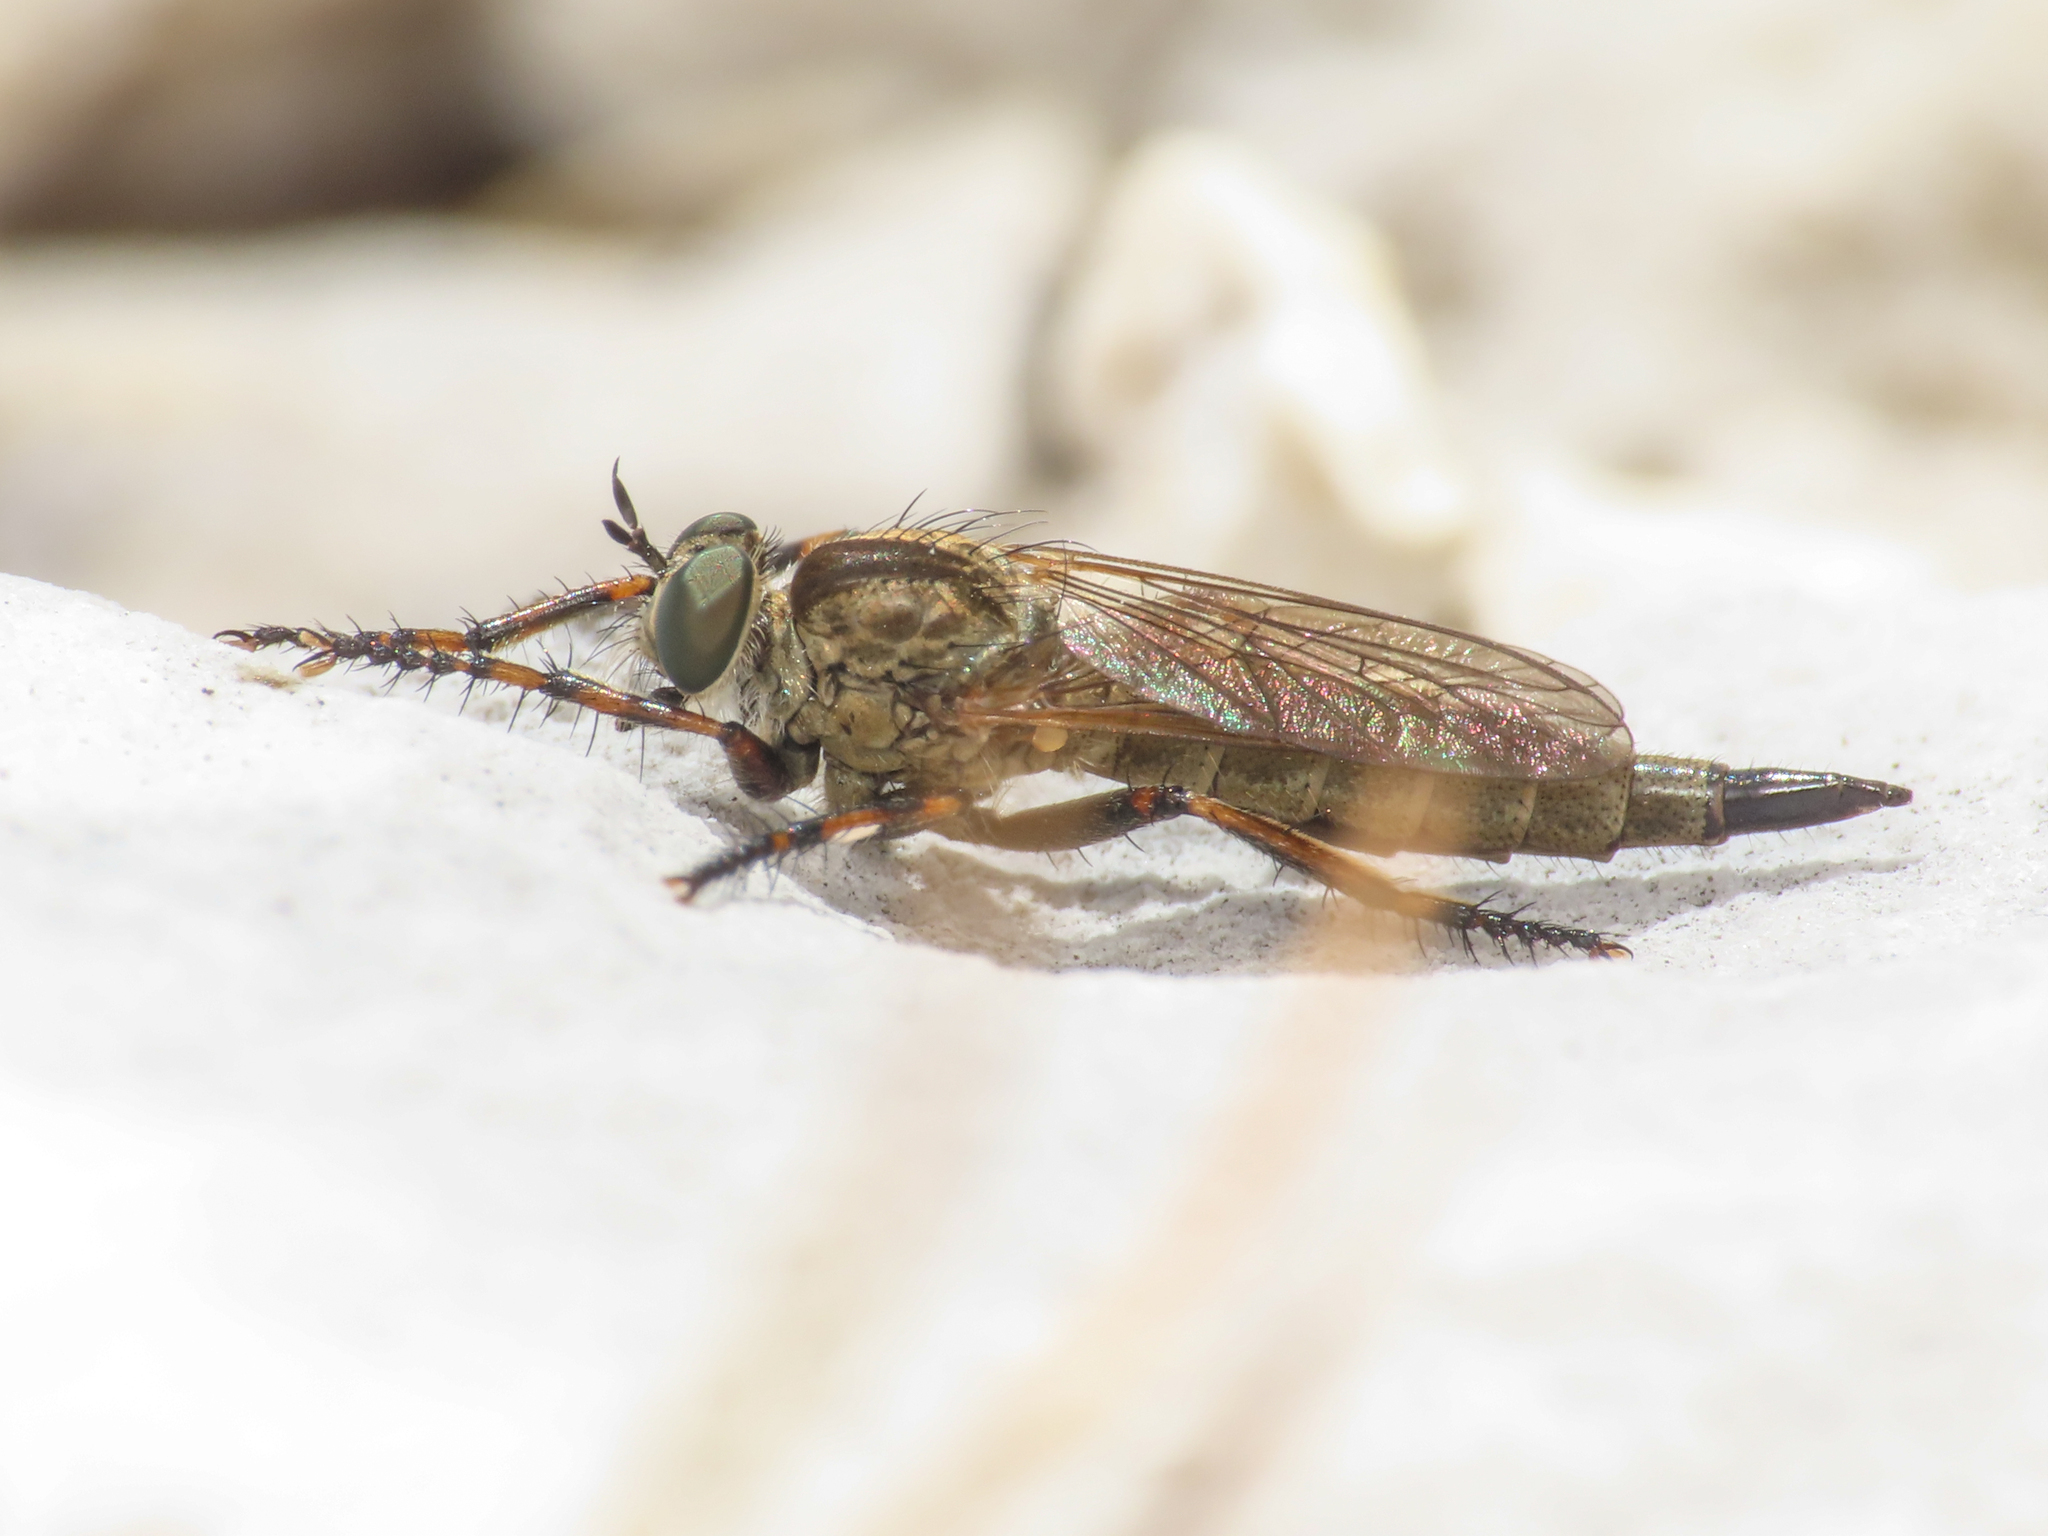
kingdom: Animalia
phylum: Arthropoda
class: Insecta
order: Diptera
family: Asilidae
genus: Epitriptus
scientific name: Epitriptus cingulatus
